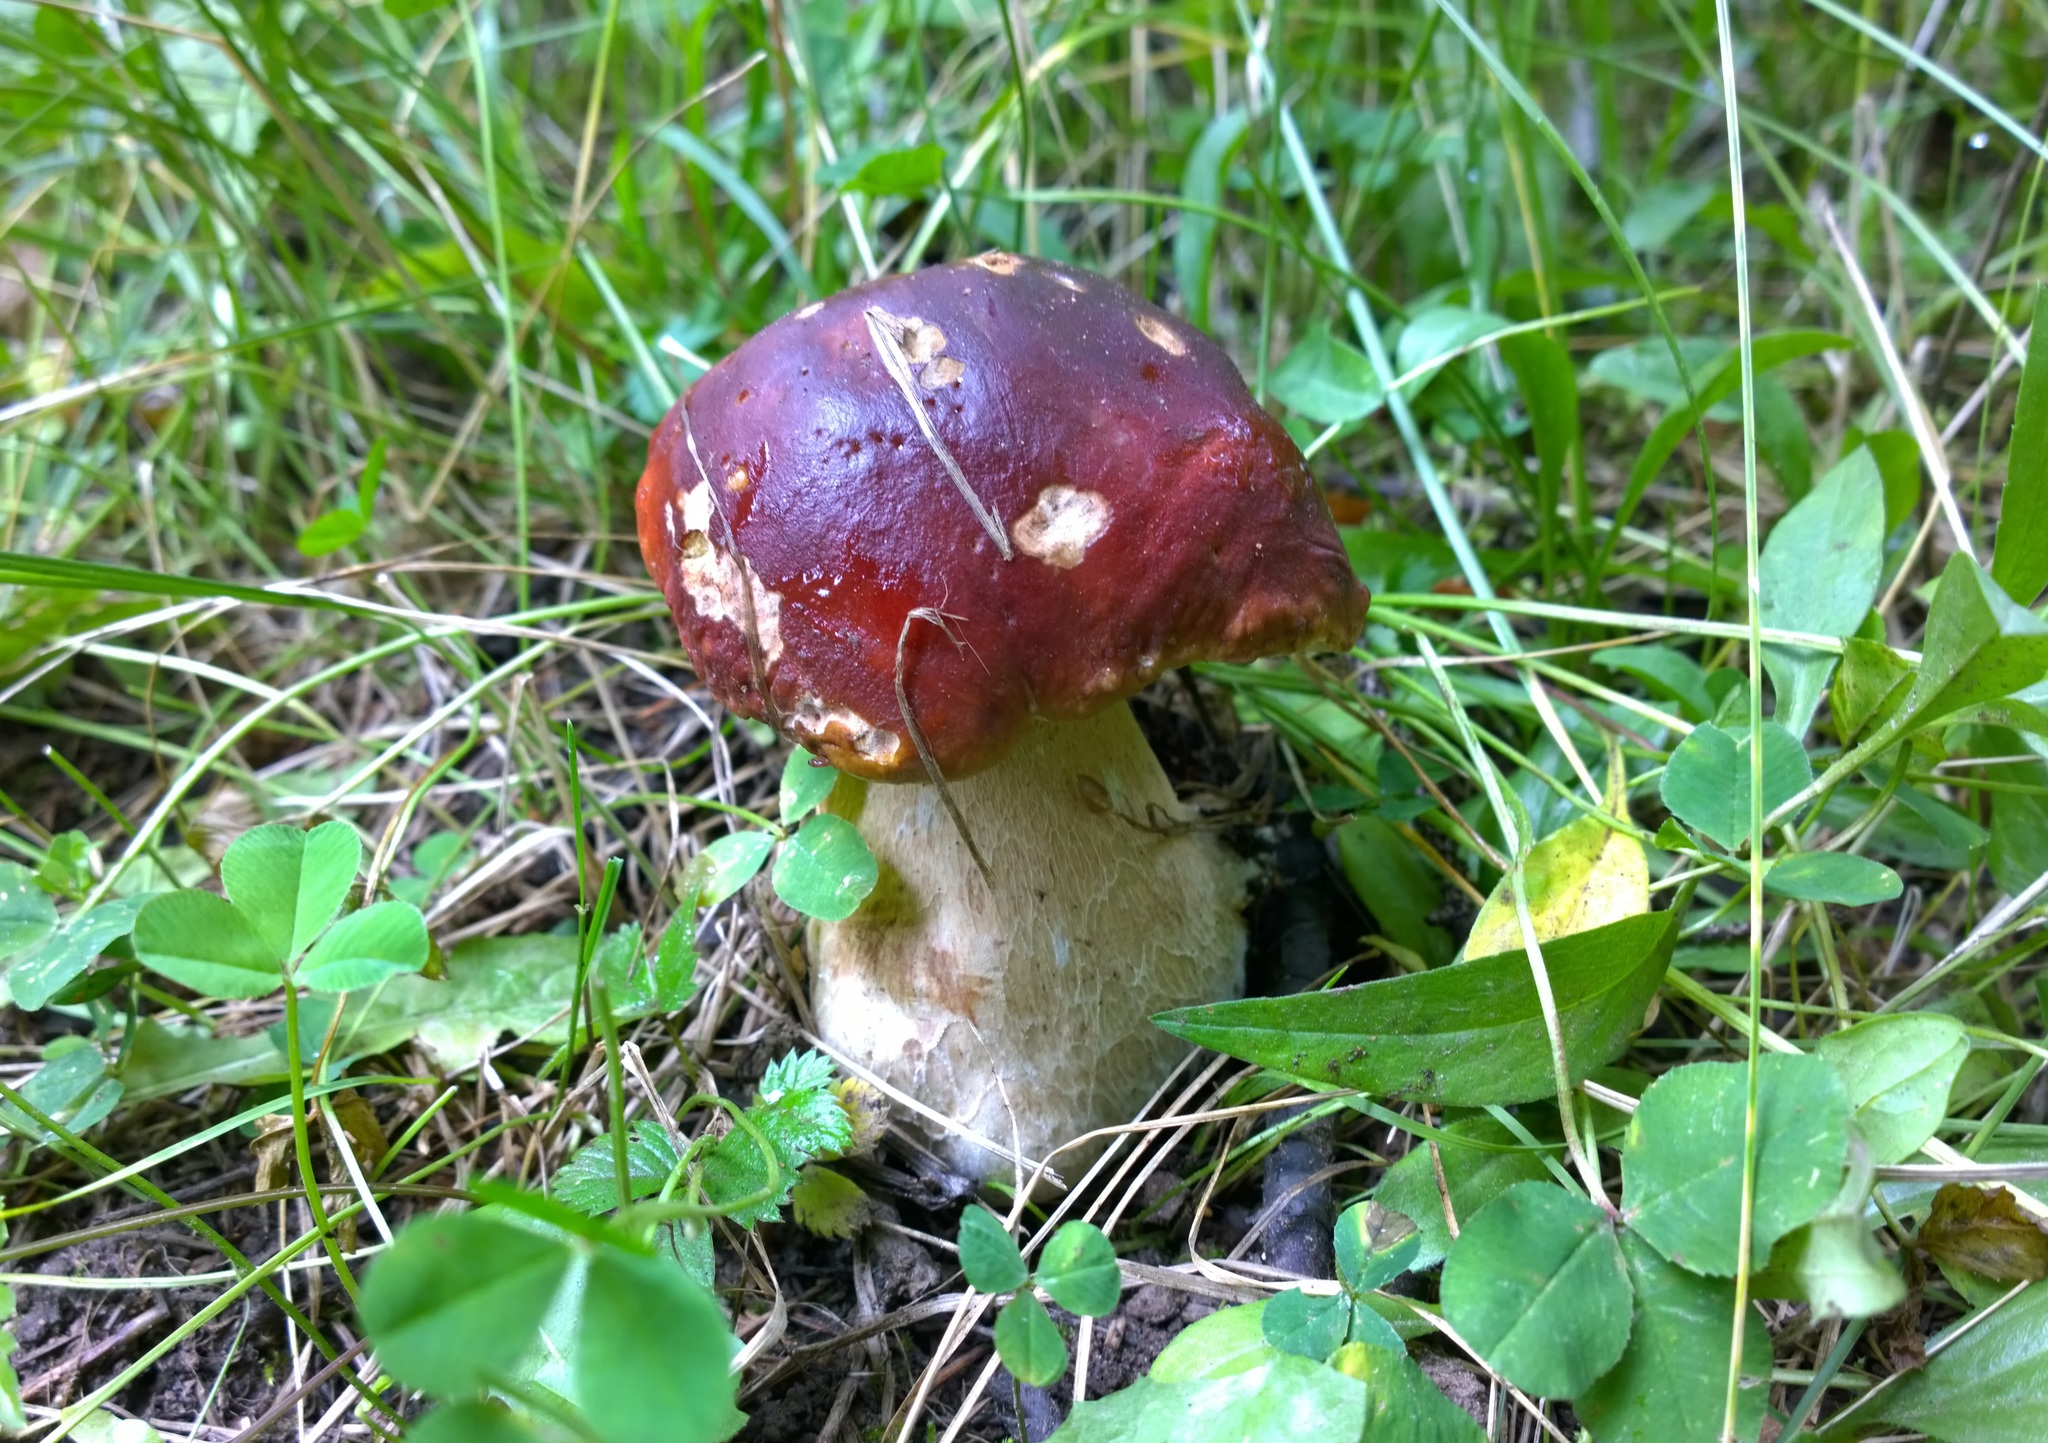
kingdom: Fungi
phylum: Basidiomycota
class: Agaricomycetes
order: Boletales
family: Boletaceae
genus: Boletus
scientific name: Boletus rubriceps
